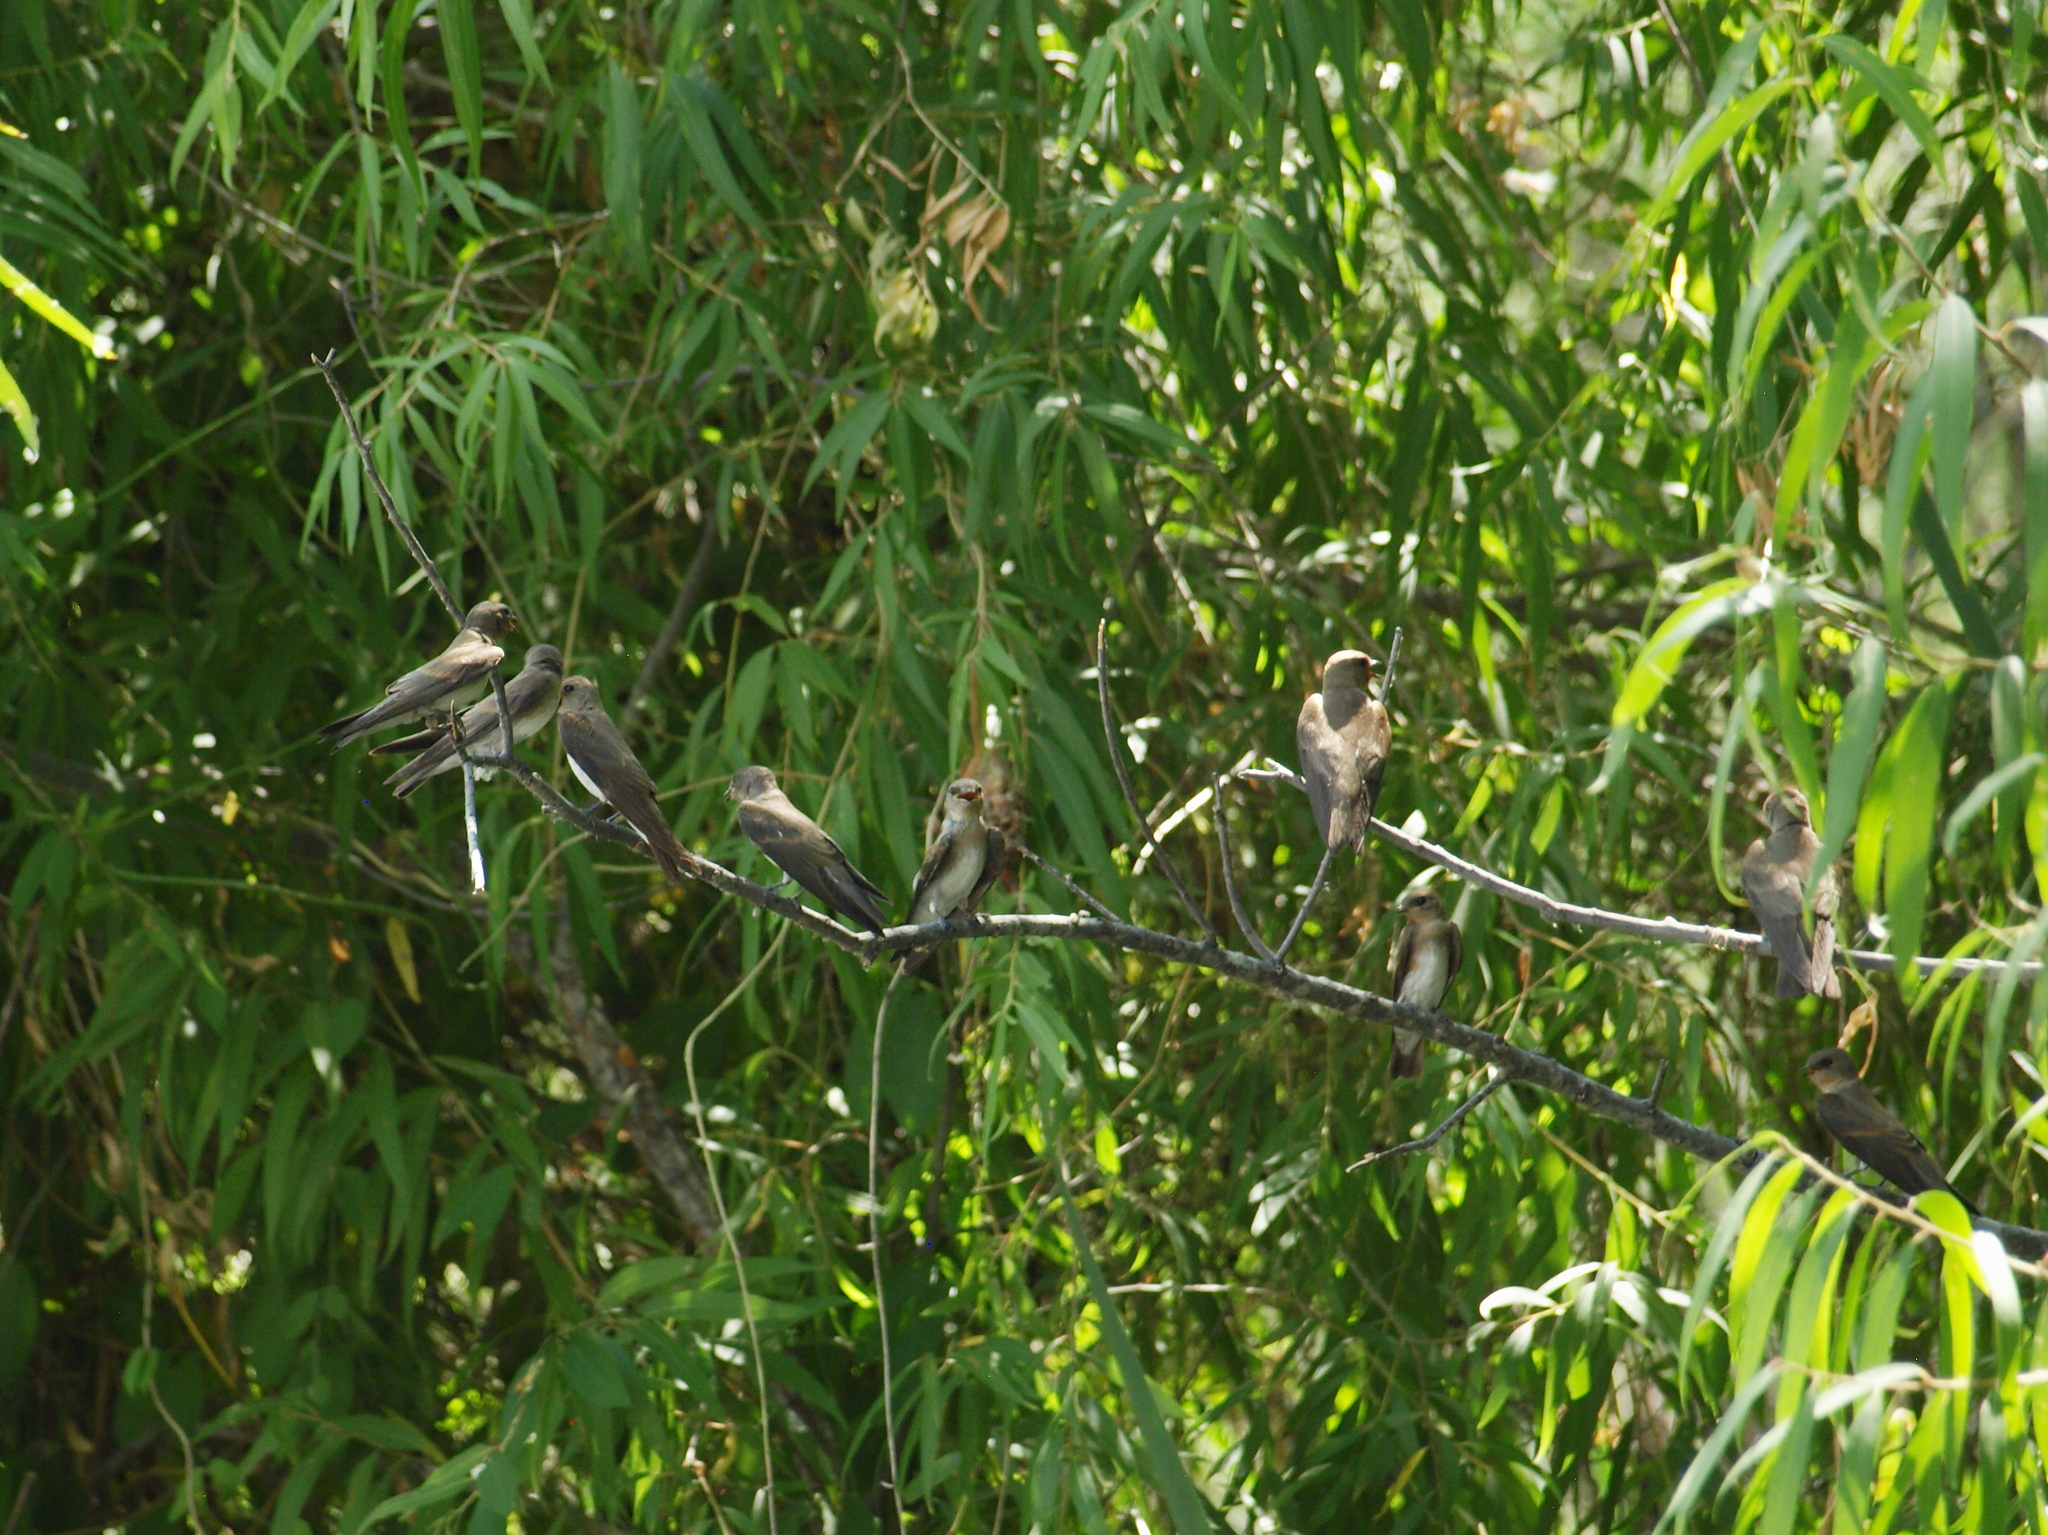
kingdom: Animalia
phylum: Chordata
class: Aves
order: Passeriformes
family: Hirundinidae
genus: Stelgidopteryx
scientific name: Stelgidopteryx serripennis
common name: Northern rough-winged swallow
